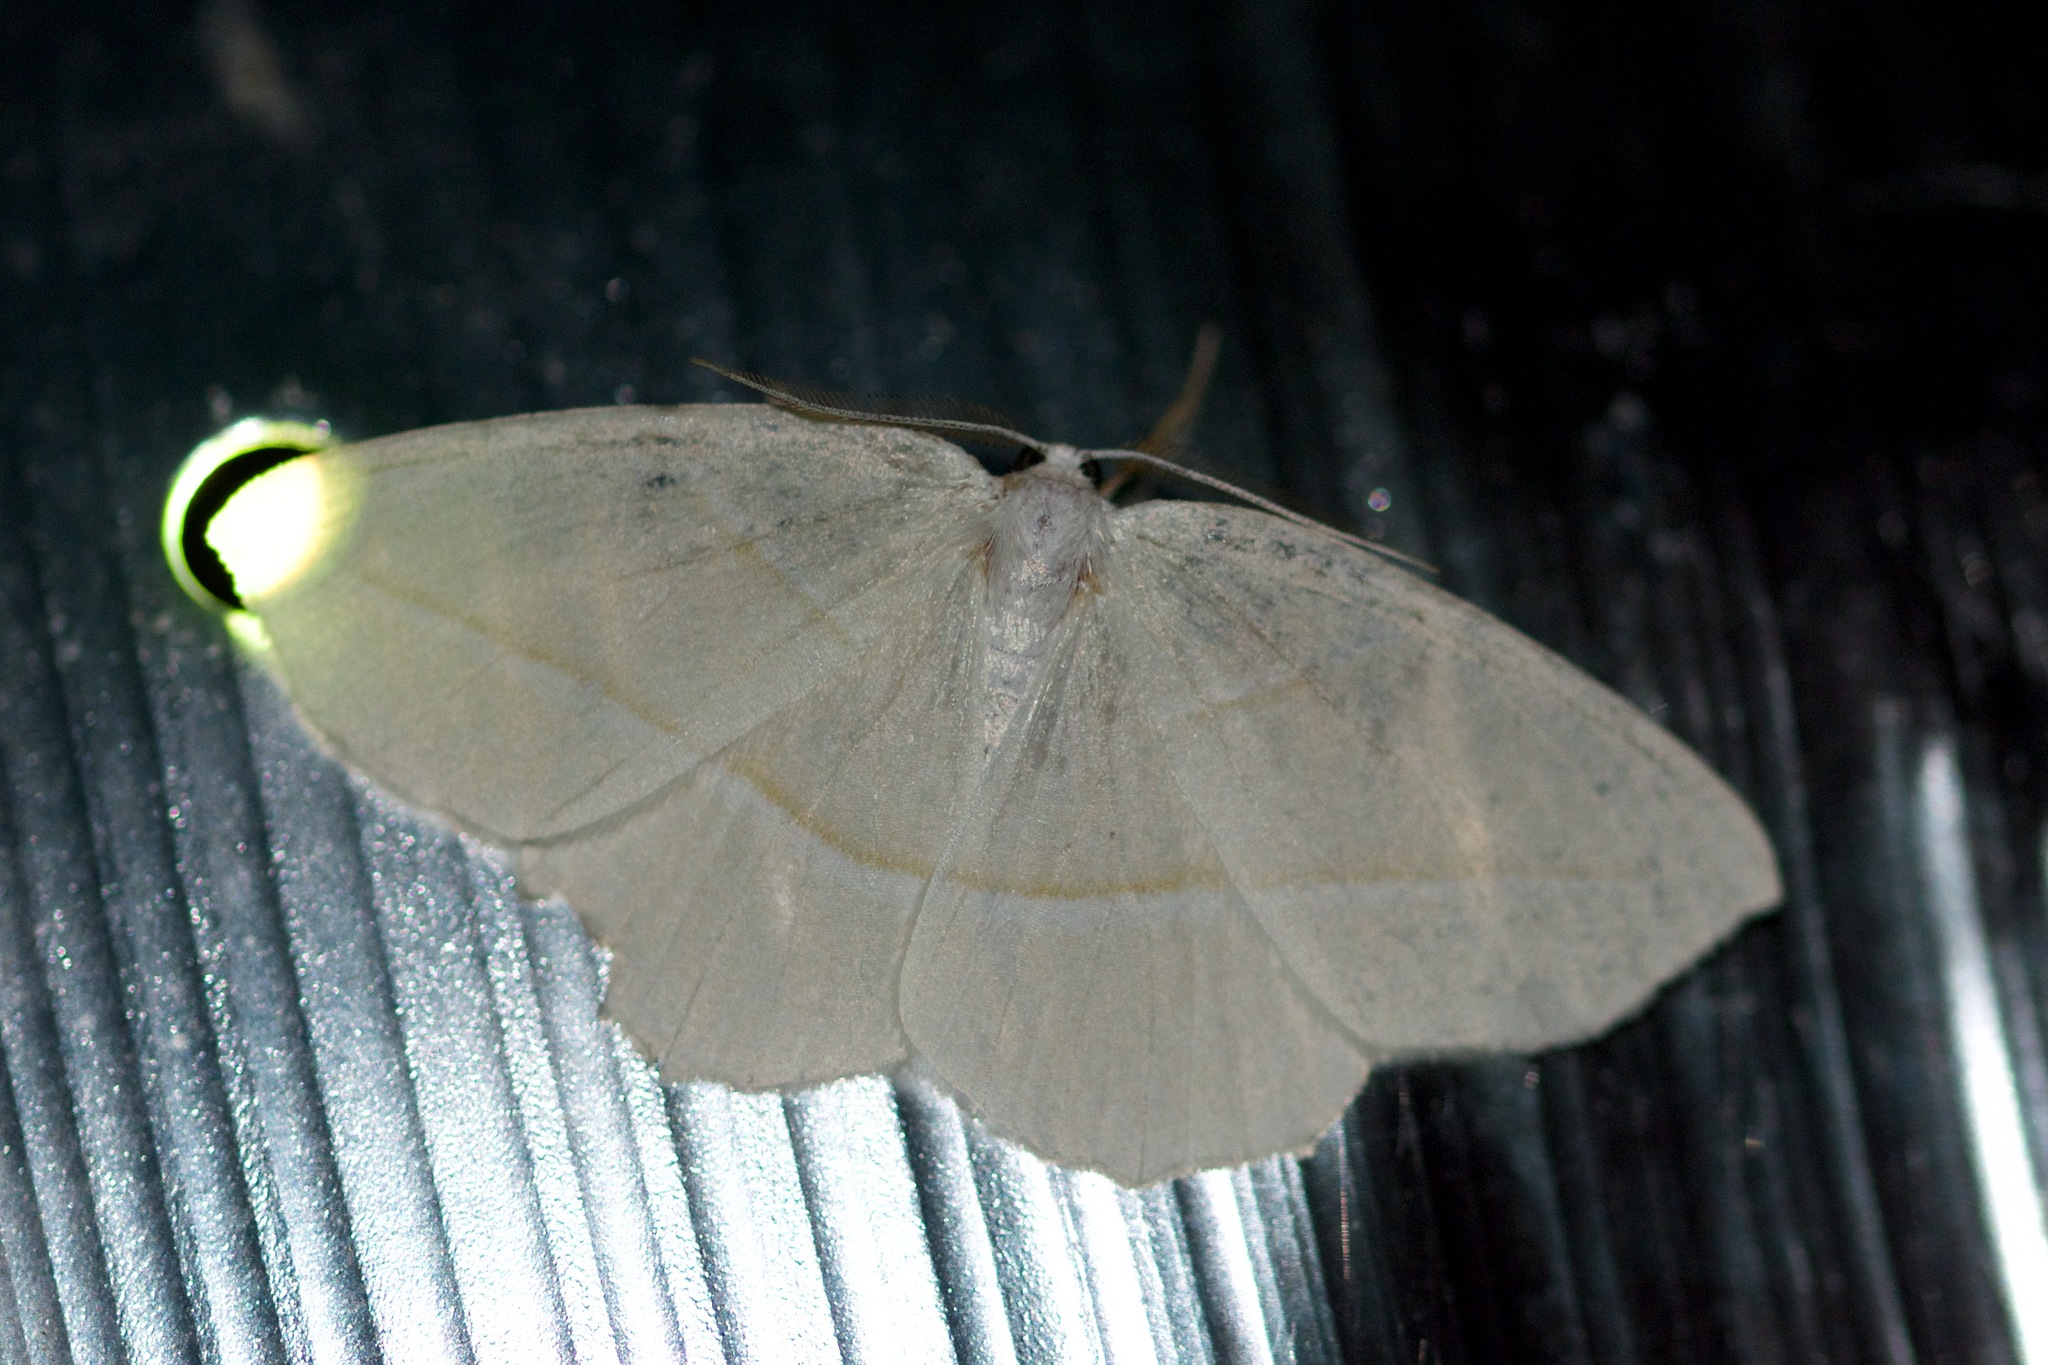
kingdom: Animalia
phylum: Arthropoda
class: Insecta
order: Lepidoptera
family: Geometridae
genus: Campaea
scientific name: Campaea perlata
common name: Fringed looper
